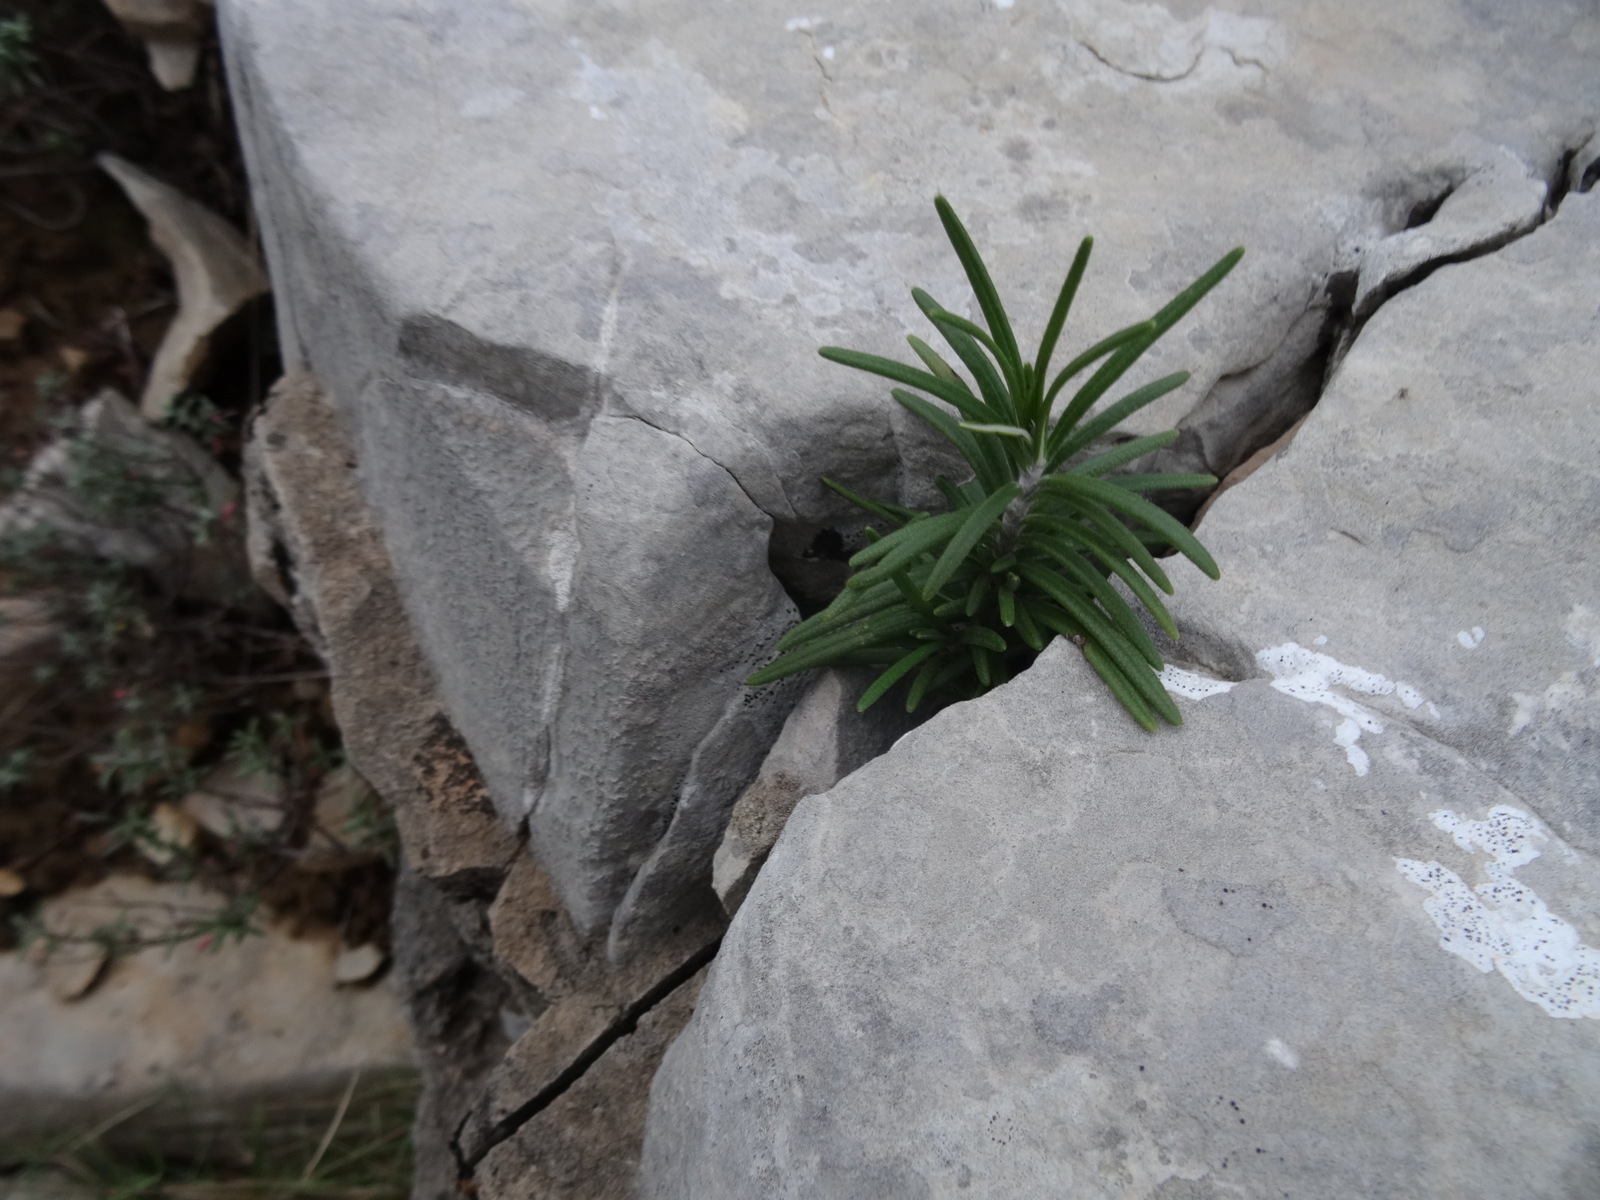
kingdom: Plantae
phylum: Tracheophyta
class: Magnoliopsida
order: Lamiales
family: Lamiaceae
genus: Salvia
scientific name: Salvia rosmarinus
